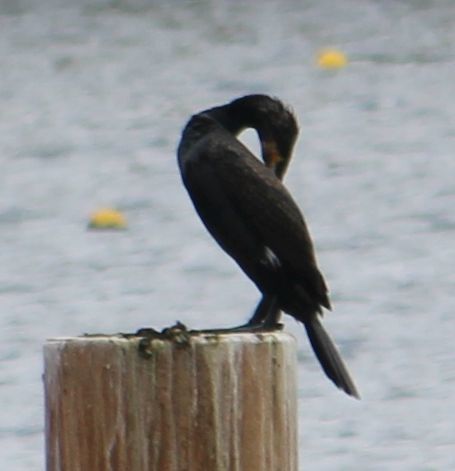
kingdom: Animalia
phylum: Chordata
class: Aves
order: Suliformes
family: Phalacrocoracidae
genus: Phalacrocorax
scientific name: Phalacrocorax carbo
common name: Great cormorant
